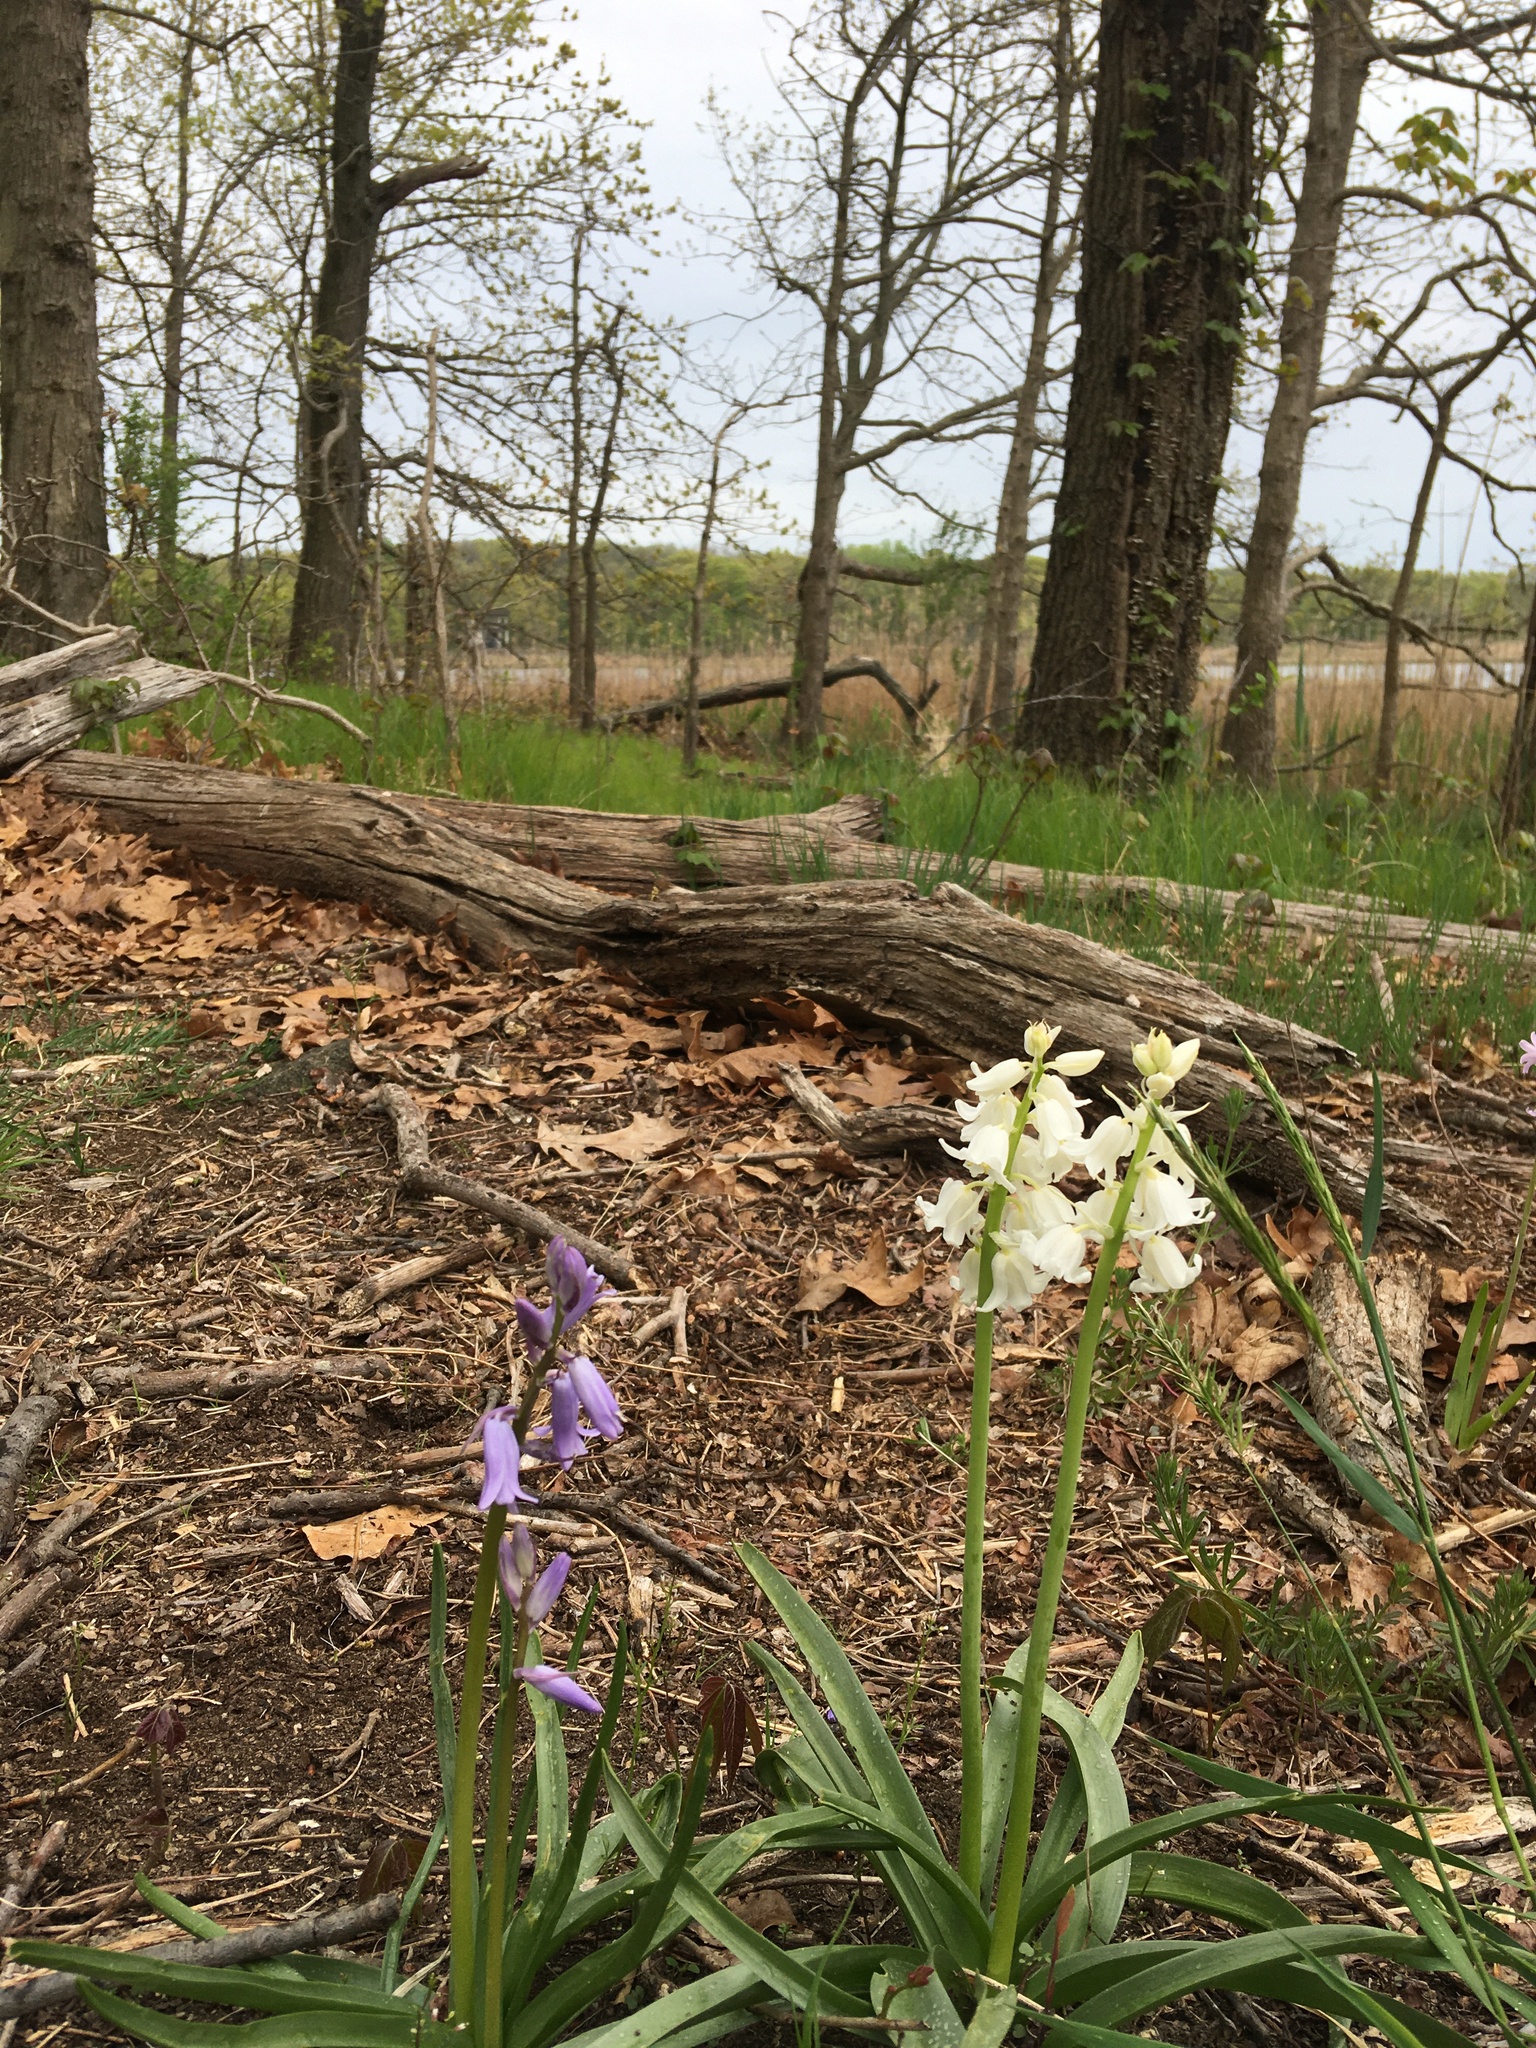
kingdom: Plantae
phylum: Tracheophyta
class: Liliopsida
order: Asparagales
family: Asparagaceae
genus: Hyacinthoides
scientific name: Hyacinthoides massartiana
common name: Hyacinthoides
